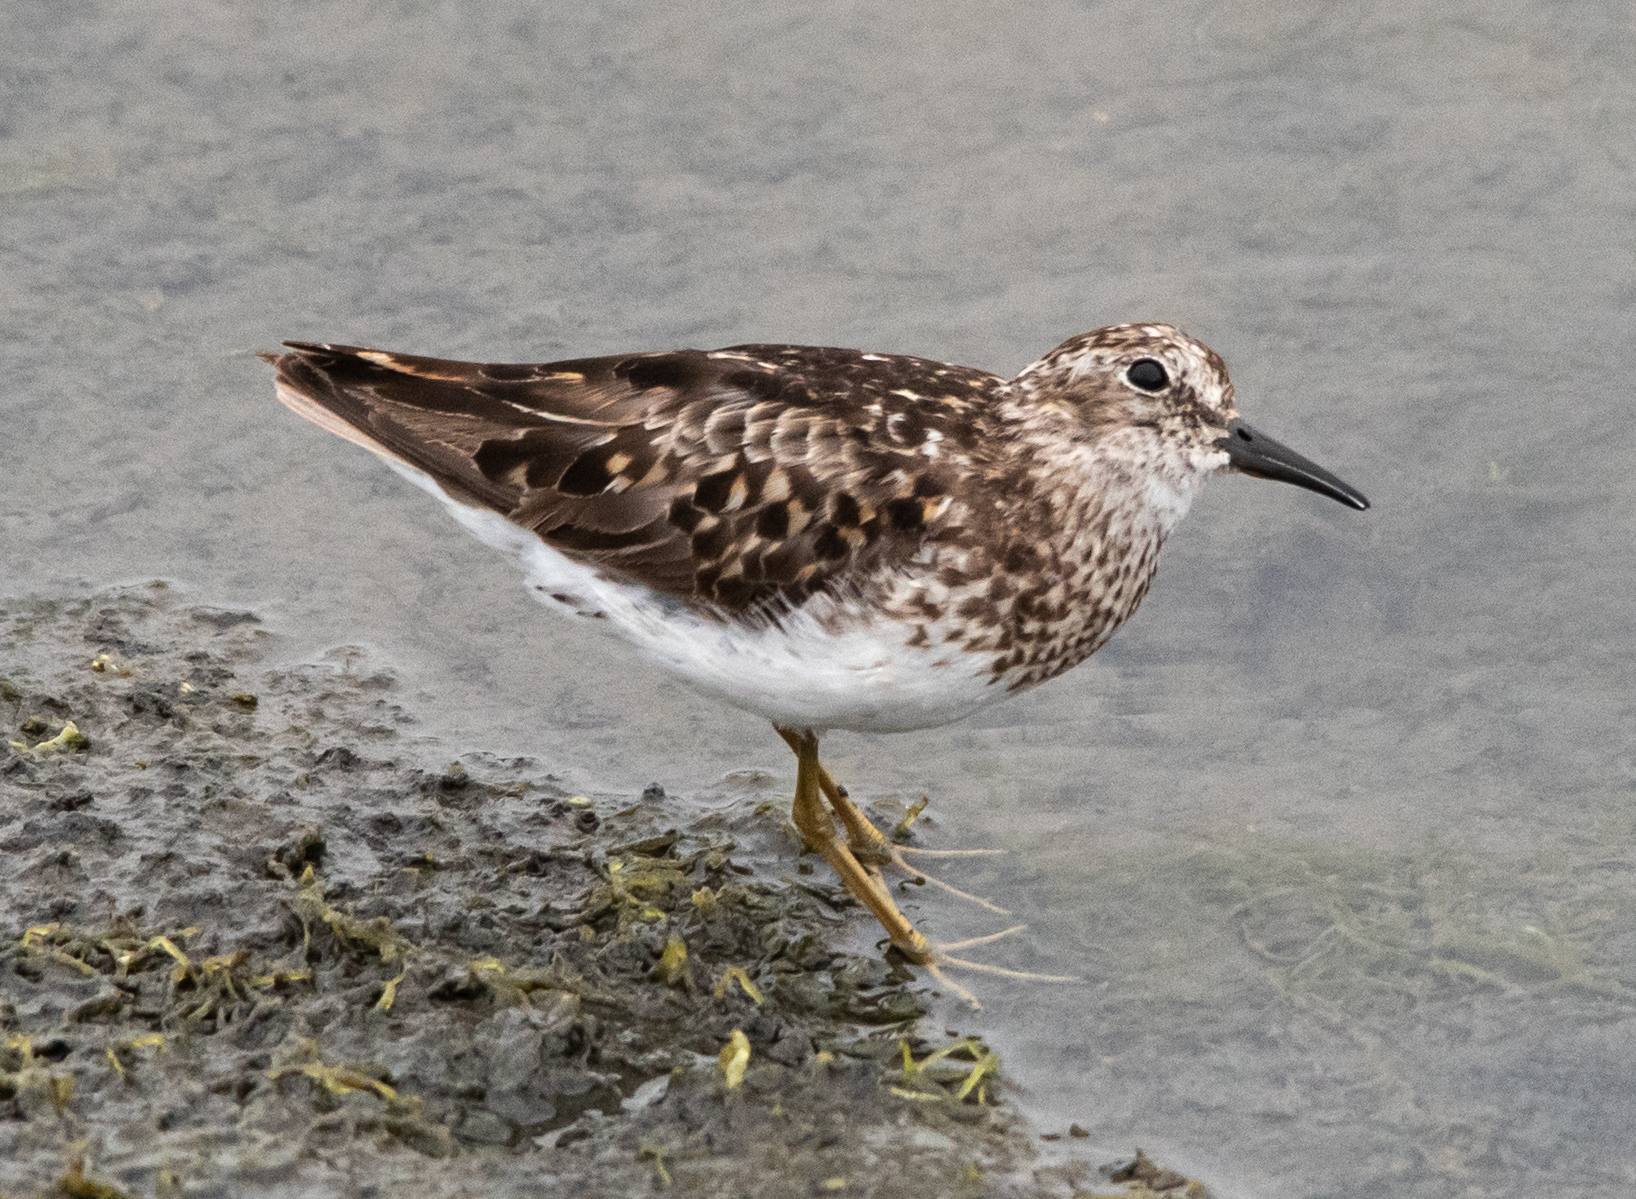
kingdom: Animalia
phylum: Chordata
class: Aves
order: Charadriiformes
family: Scolopacidae
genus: Calidris
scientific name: Calidris minutilla
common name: Least sandpiper
